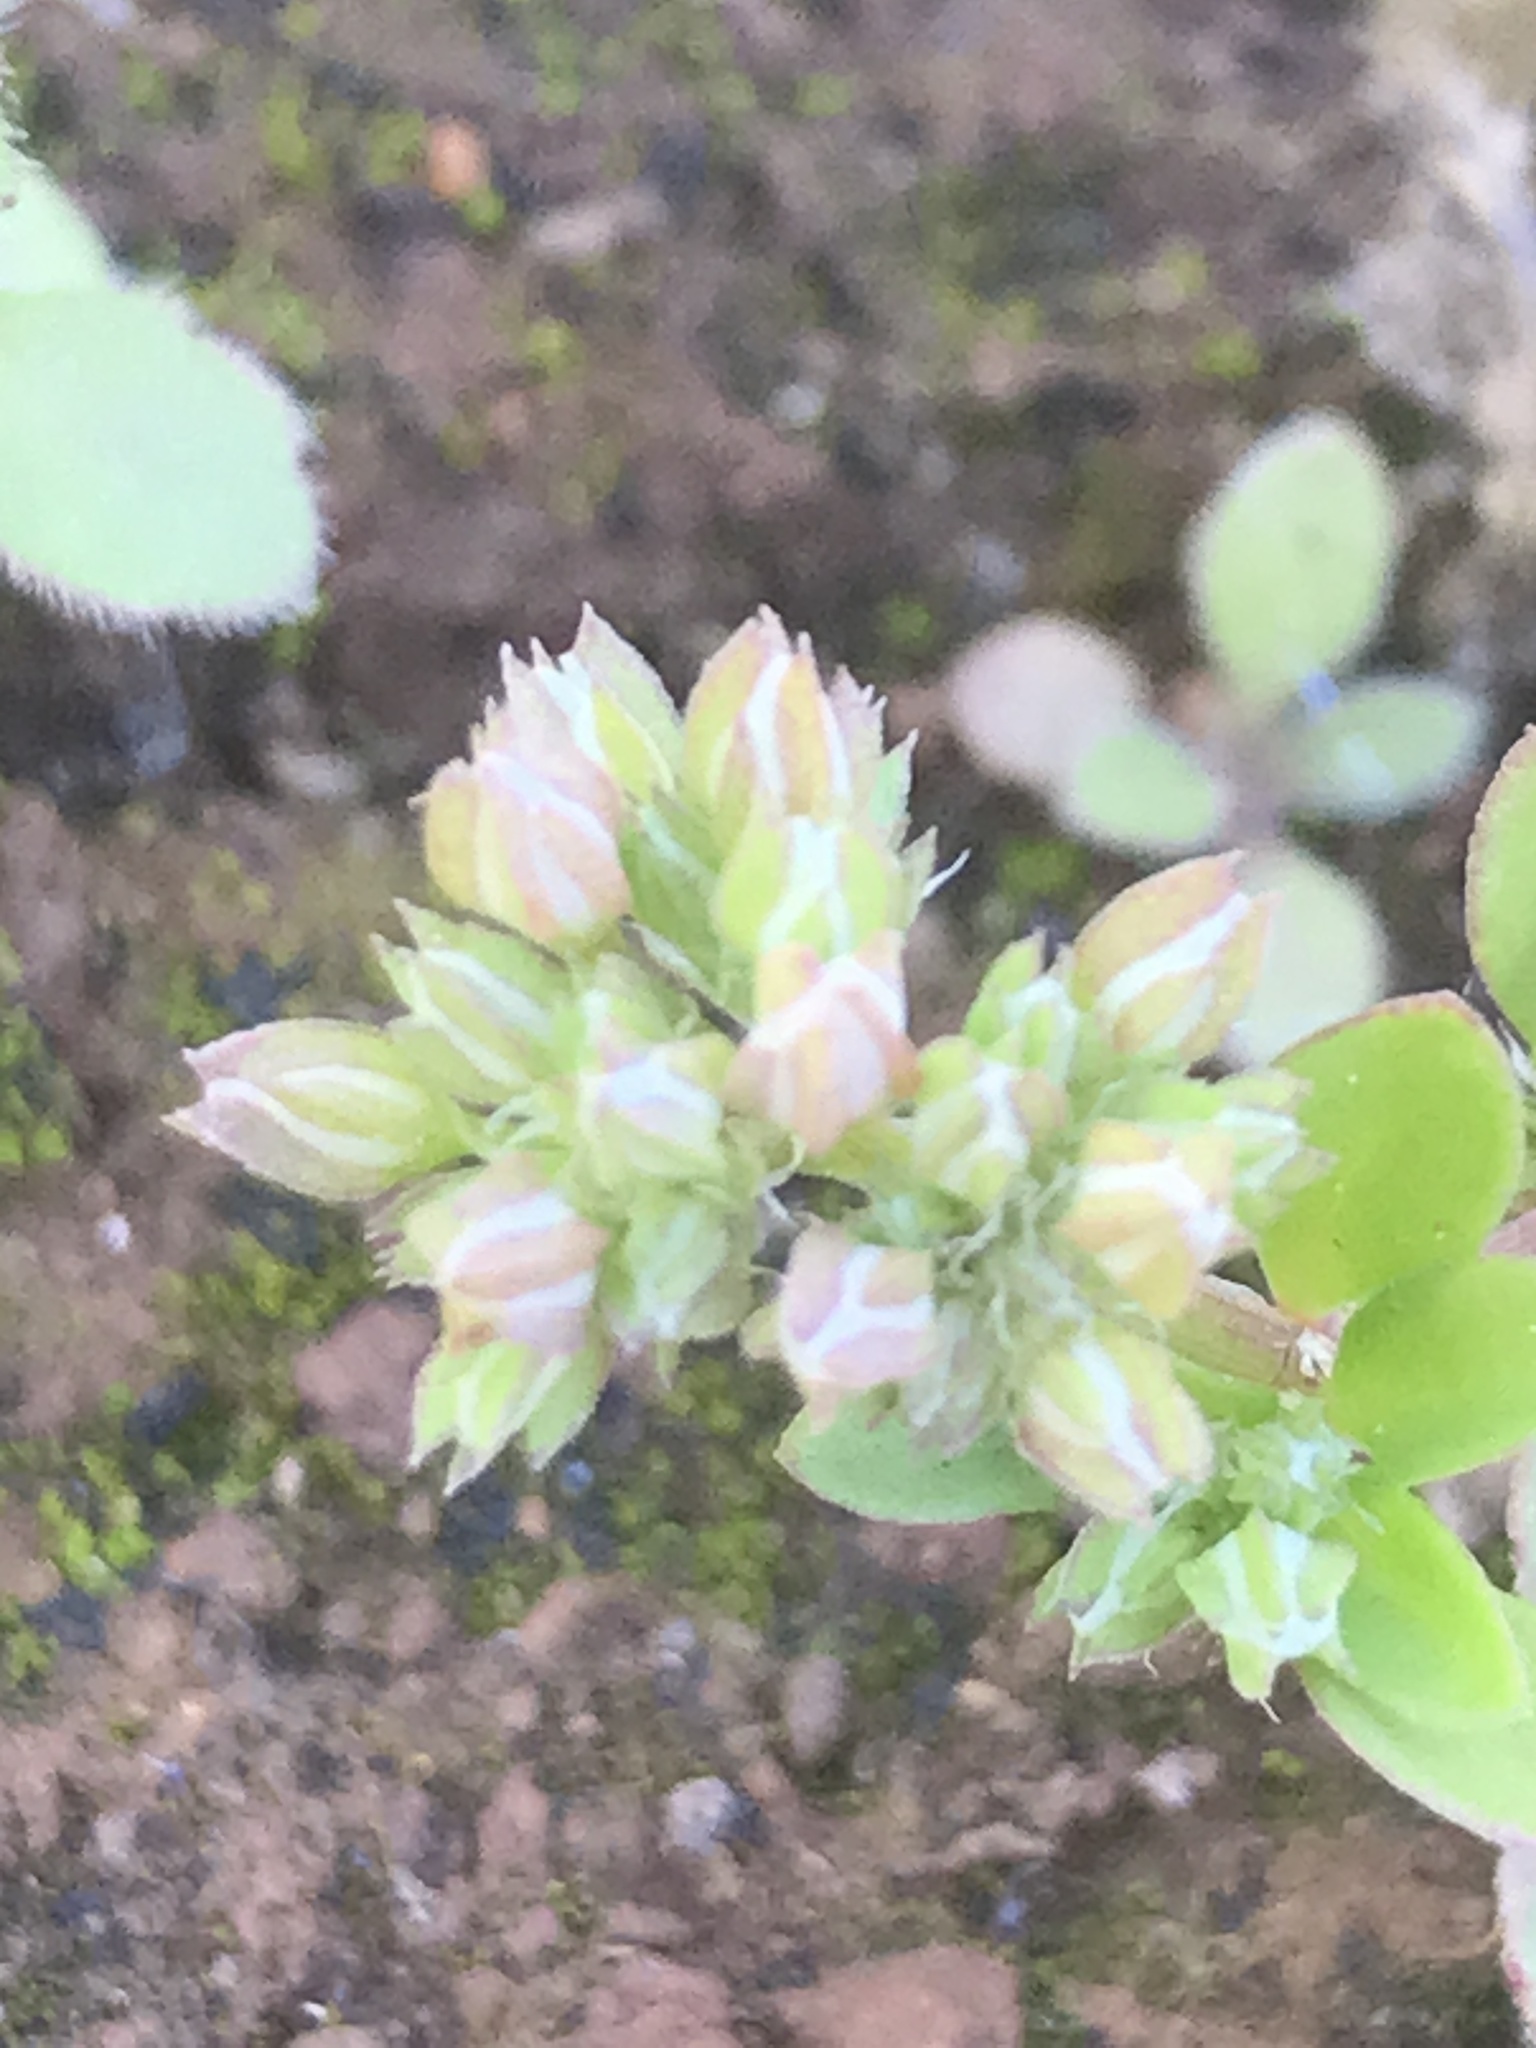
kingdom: Plantae
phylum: Tracheophyta
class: Magnoliopsida
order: Caryophyllales
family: Caryophyllaceae
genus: Polycarpon
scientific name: Polycarpon tetraphyllum
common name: Four-leaved all-seed
